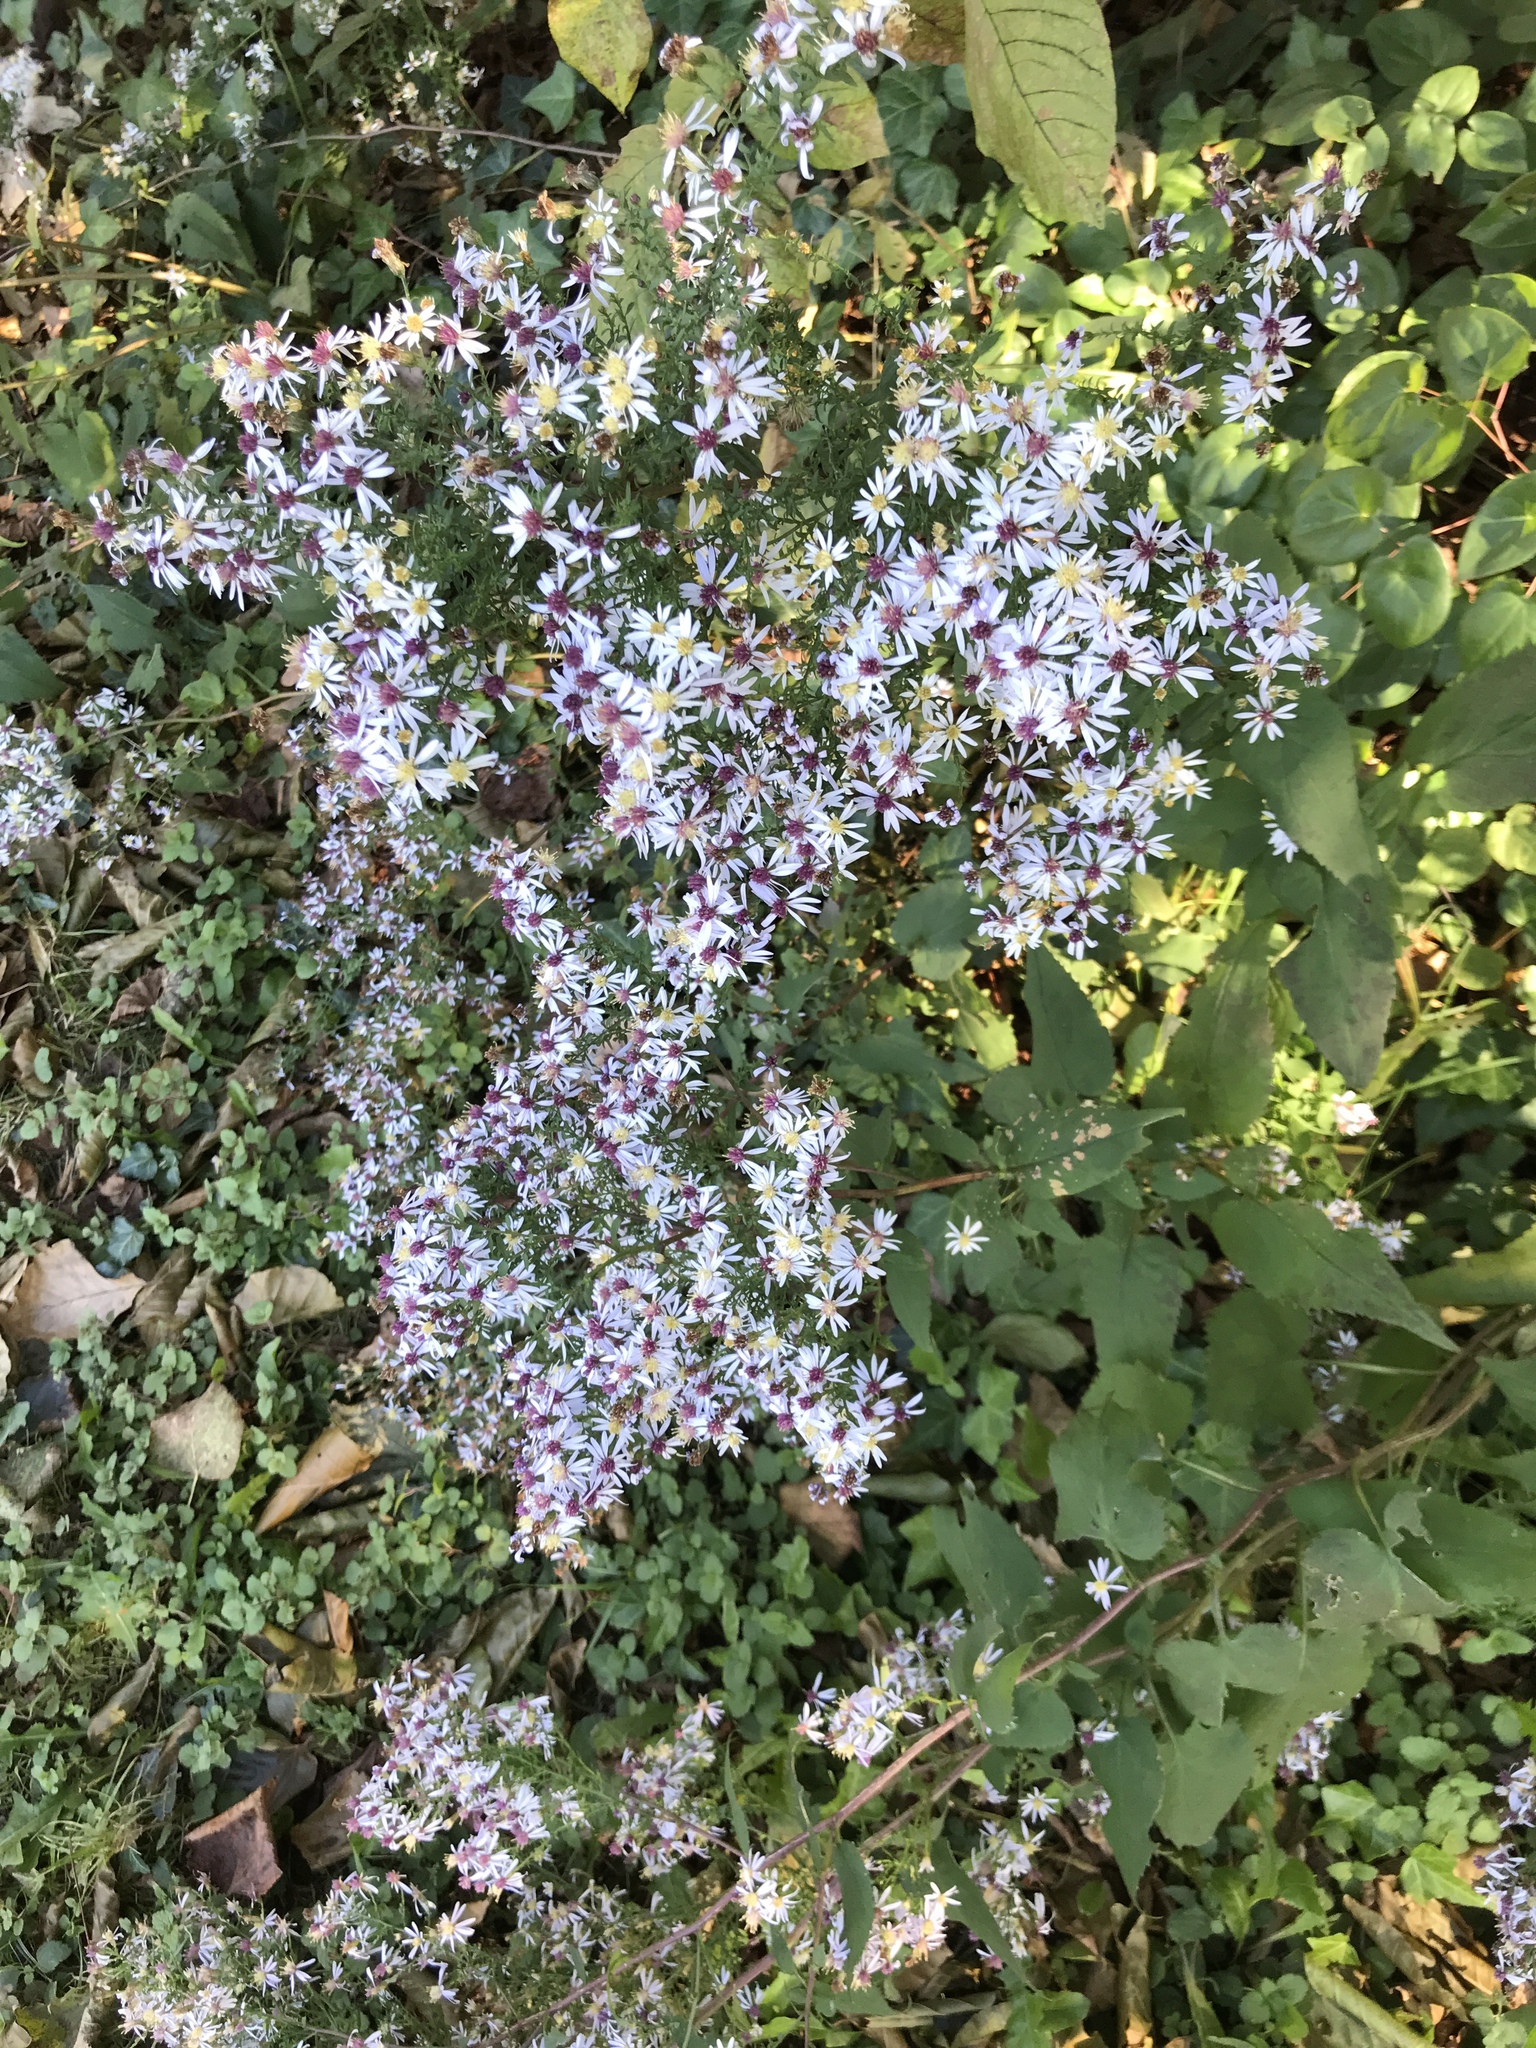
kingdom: Plantae
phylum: Tracheophyta
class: Magnoliopsida
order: Asterales
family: Asteraceae
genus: Symphyotrichum
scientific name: Symphyotrichum cordifolium
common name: Beeweed
